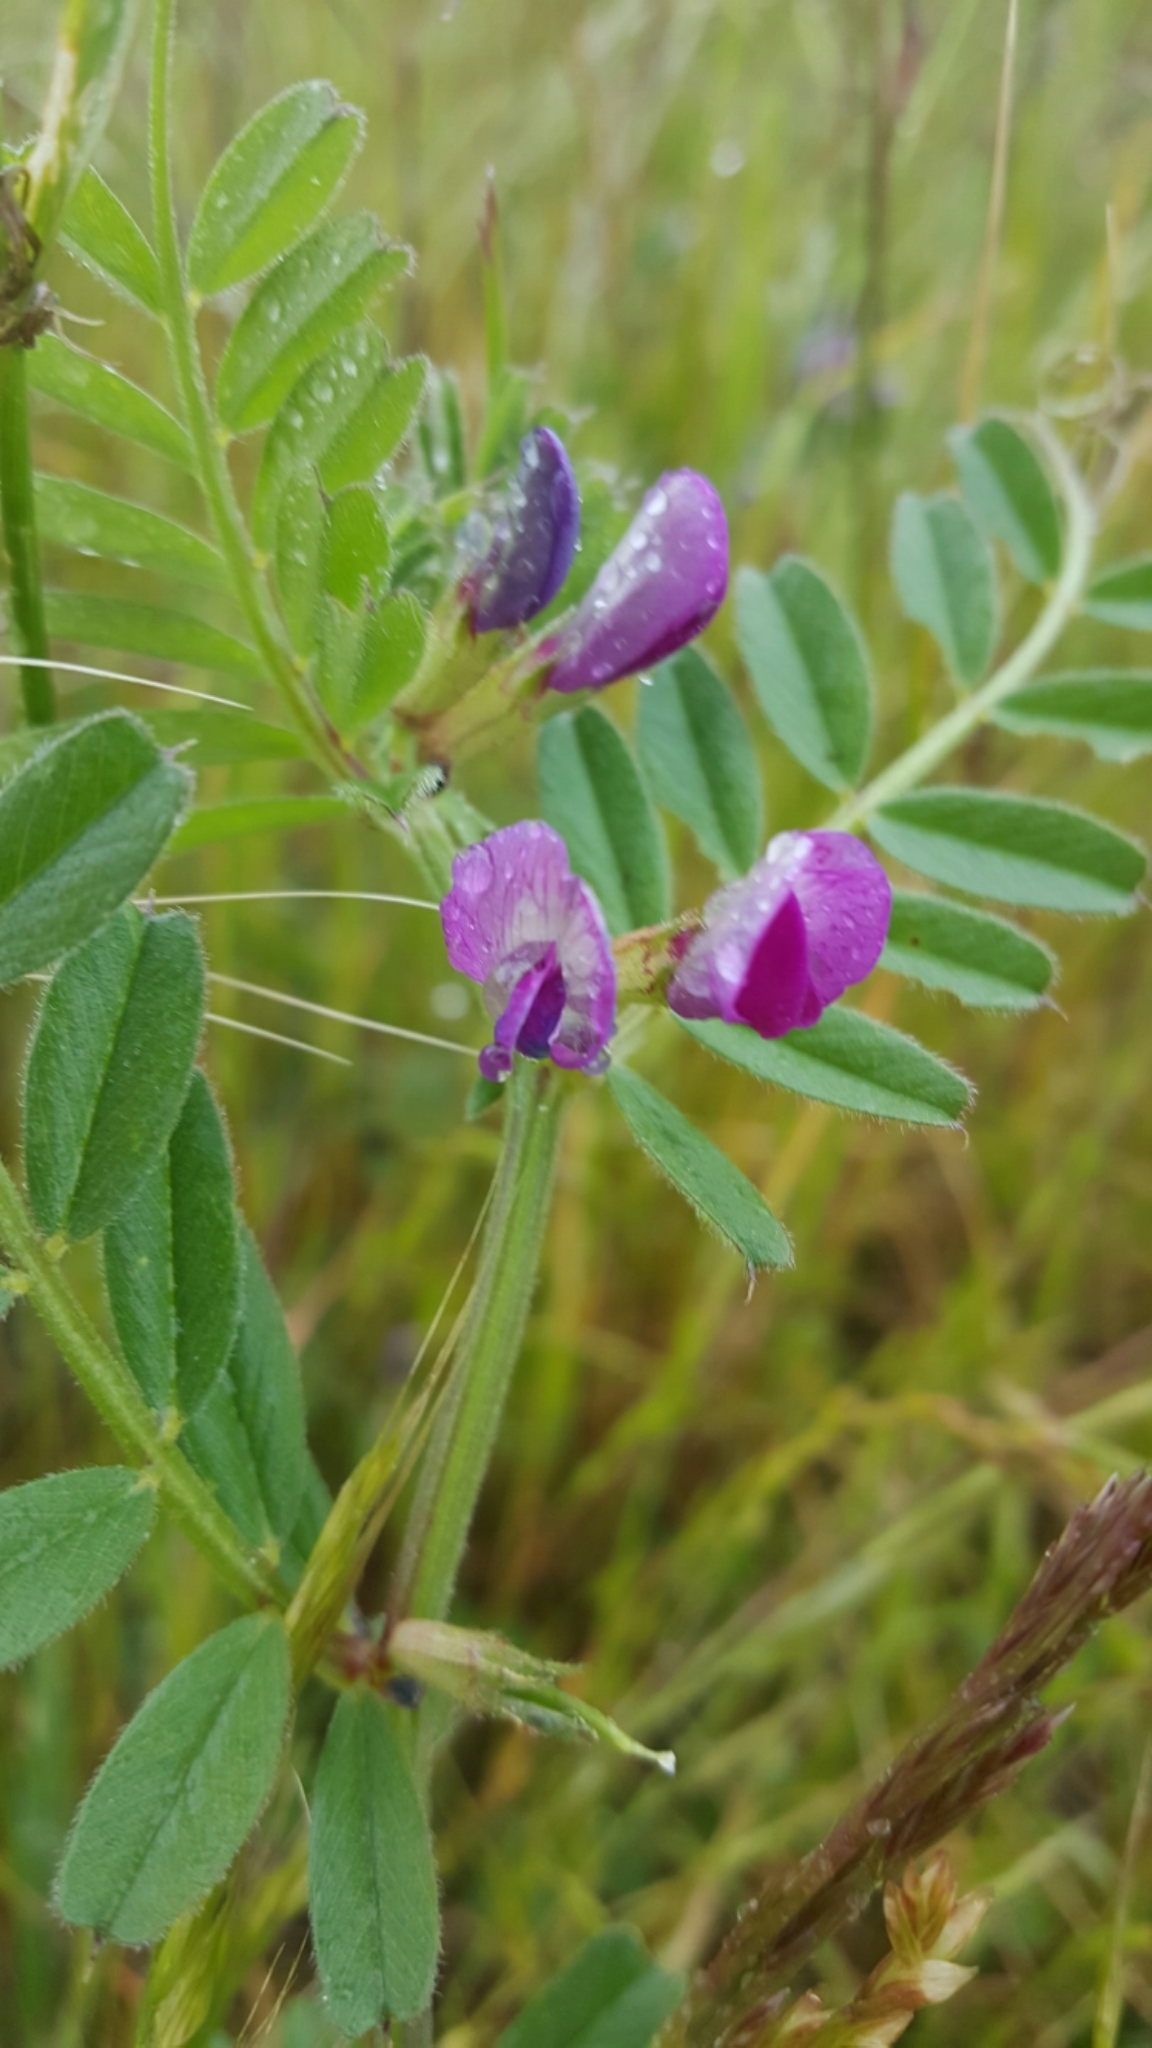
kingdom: Plantae
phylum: Tracheophyta
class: Magnoliopsida
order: Fabales
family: Fabaceae
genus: Vicia
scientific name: Vicia sativa
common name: Garden vetch
